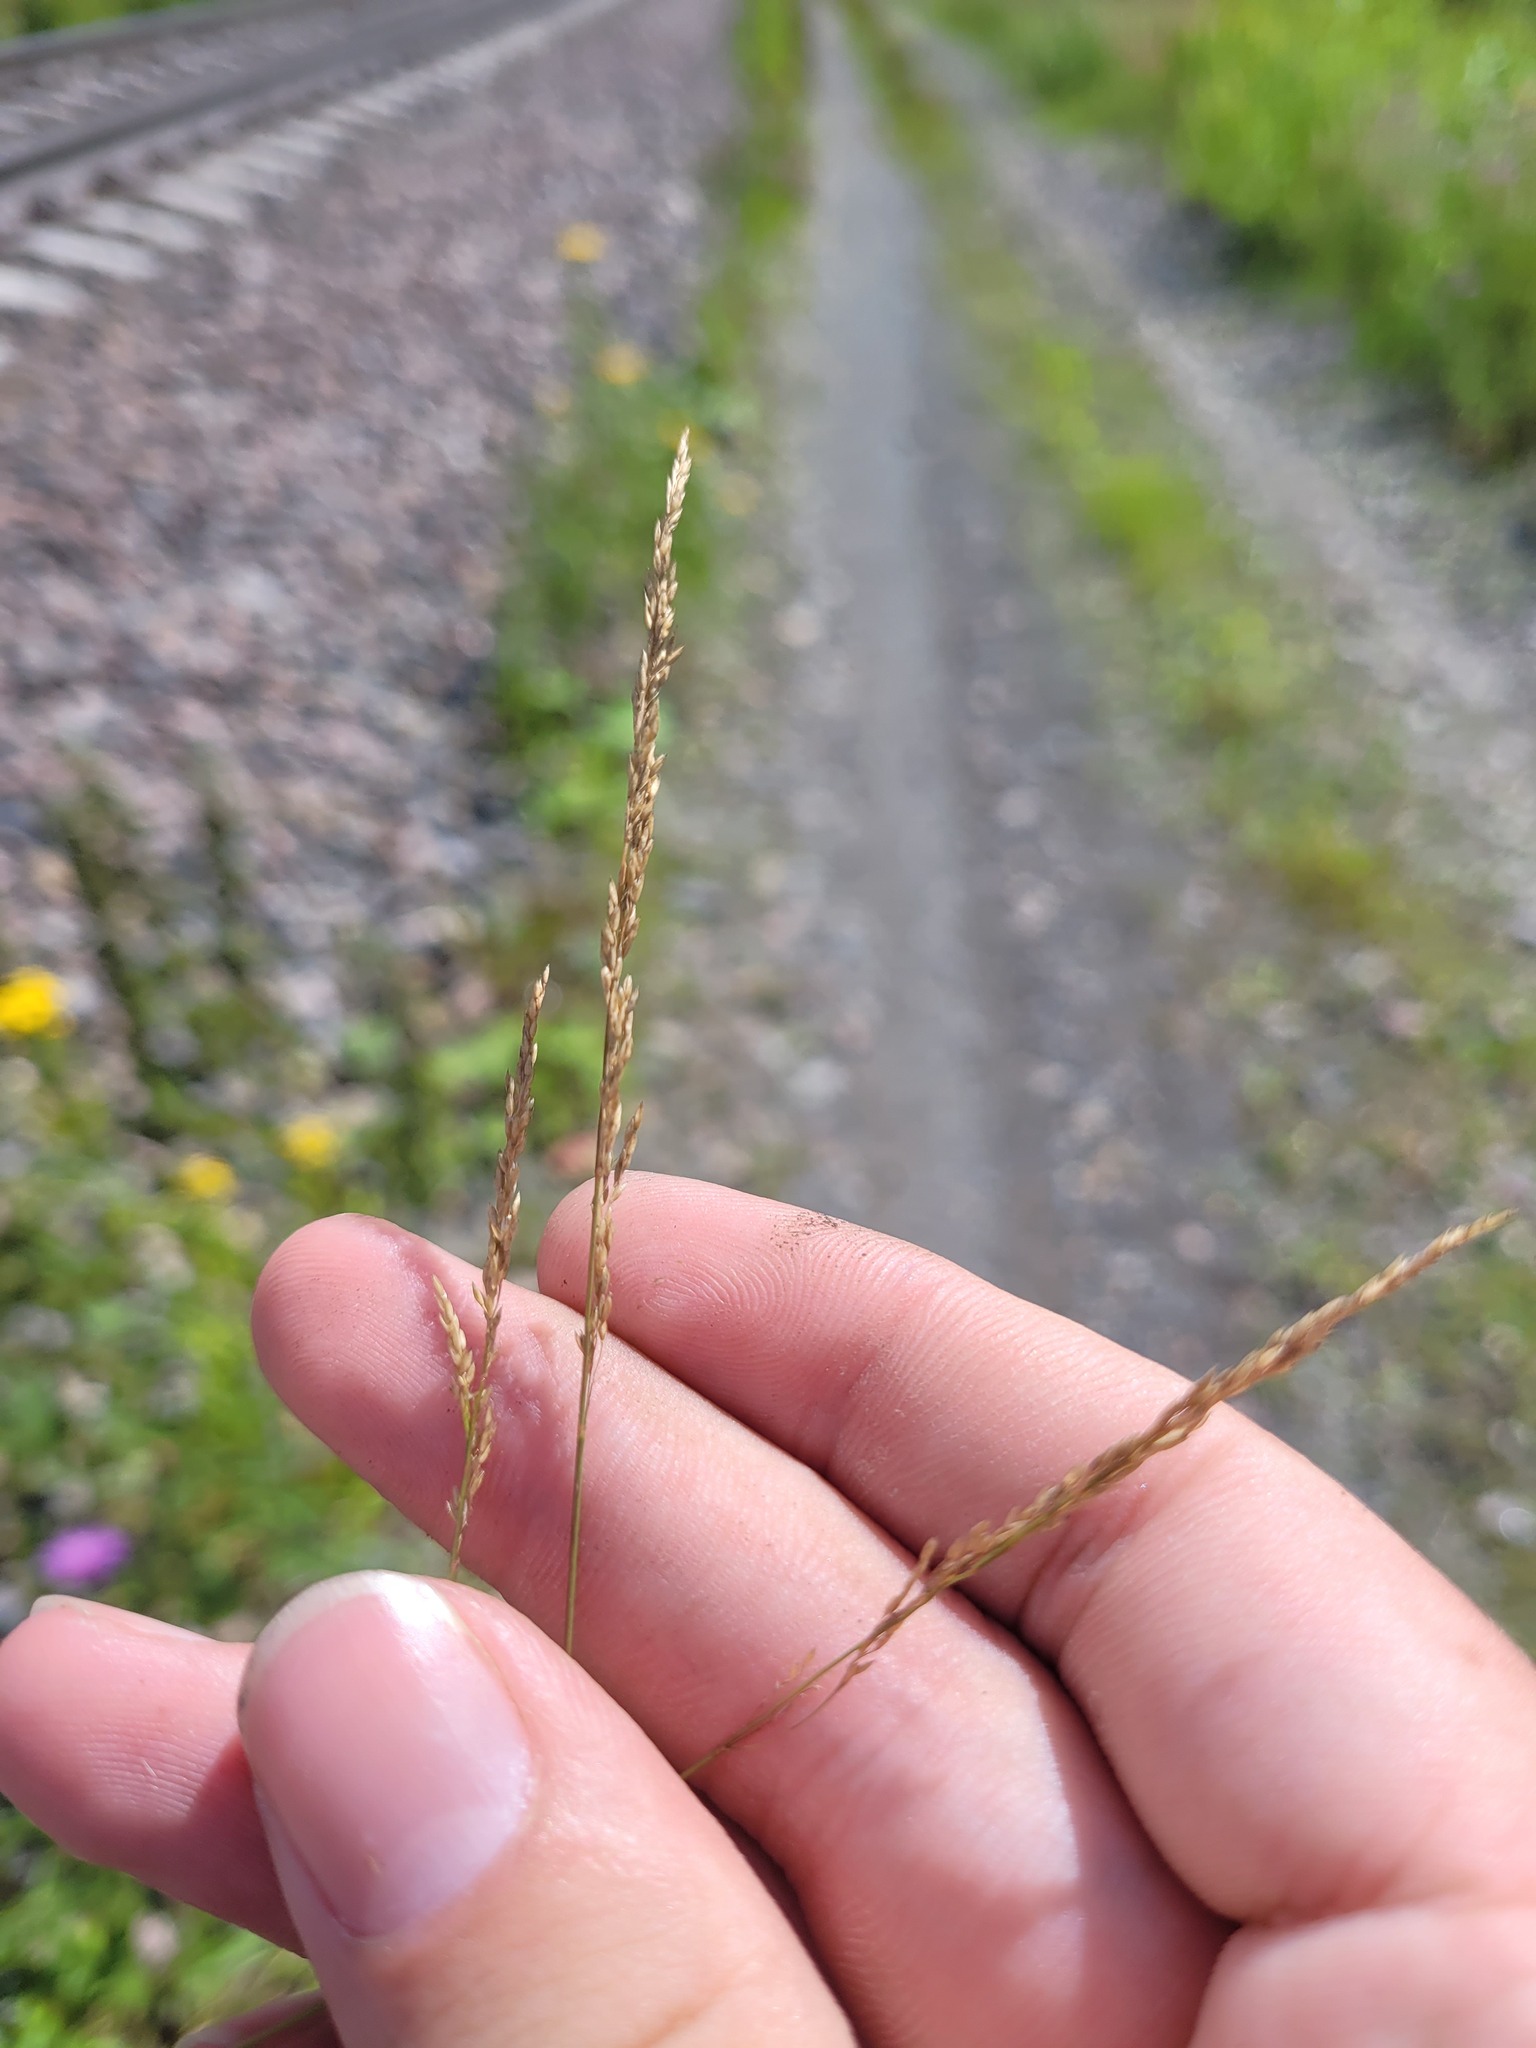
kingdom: Plantae
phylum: Tracheophyta
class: Liliopsida
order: Poales
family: Poaceae
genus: Poa
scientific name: Poa compressa
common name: Canada bluegrass
